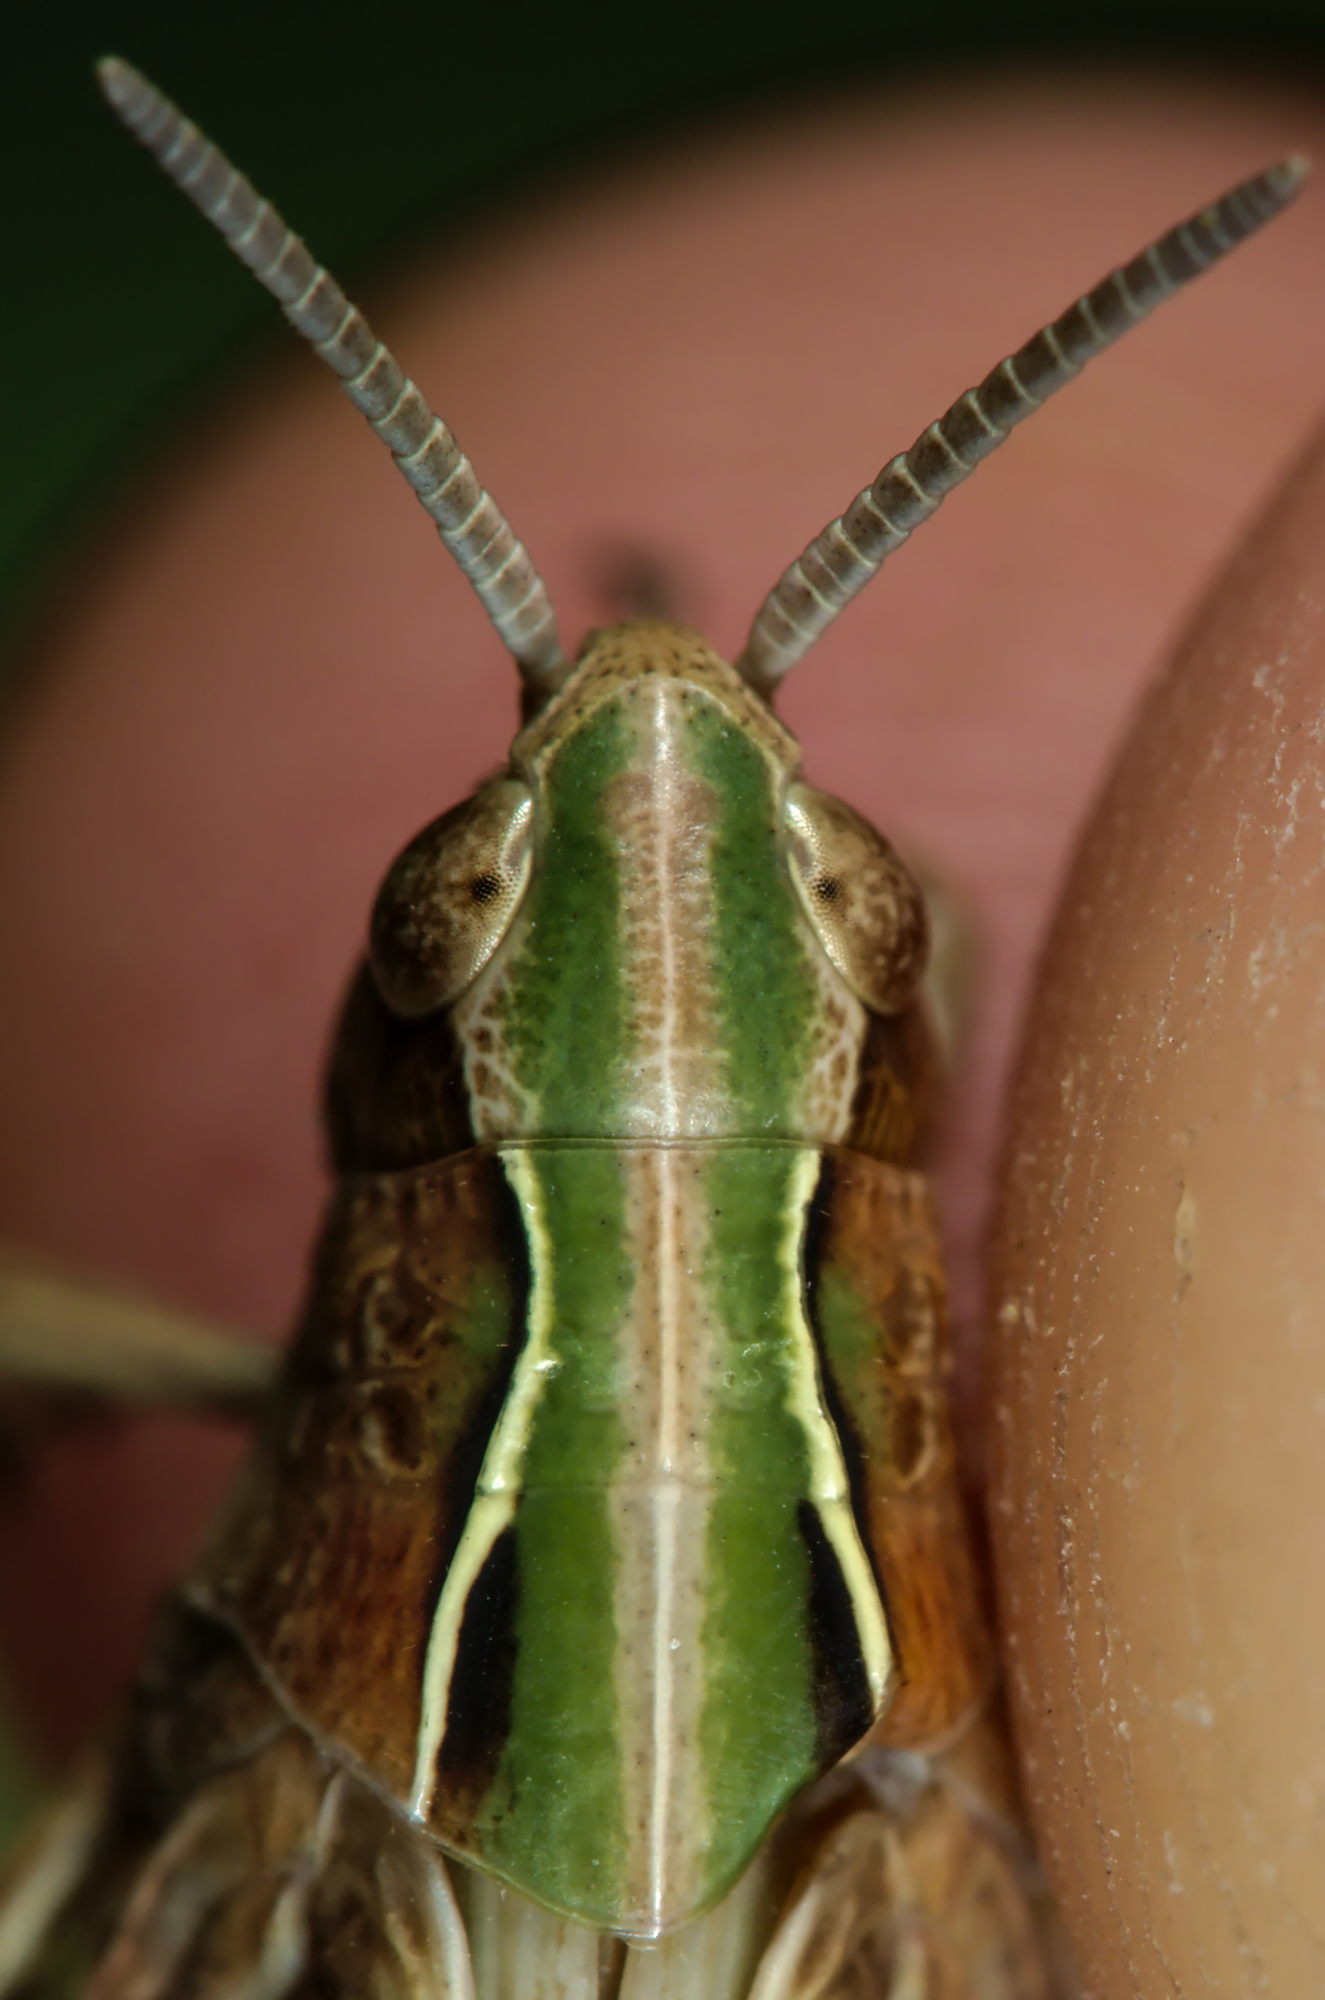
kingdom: Animalia
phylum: Arthropoda
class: Insecta
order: Orthoptera
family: Acrididae
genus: Omocestus
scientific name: Omocestus viridulus
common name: Common green grasshopper
